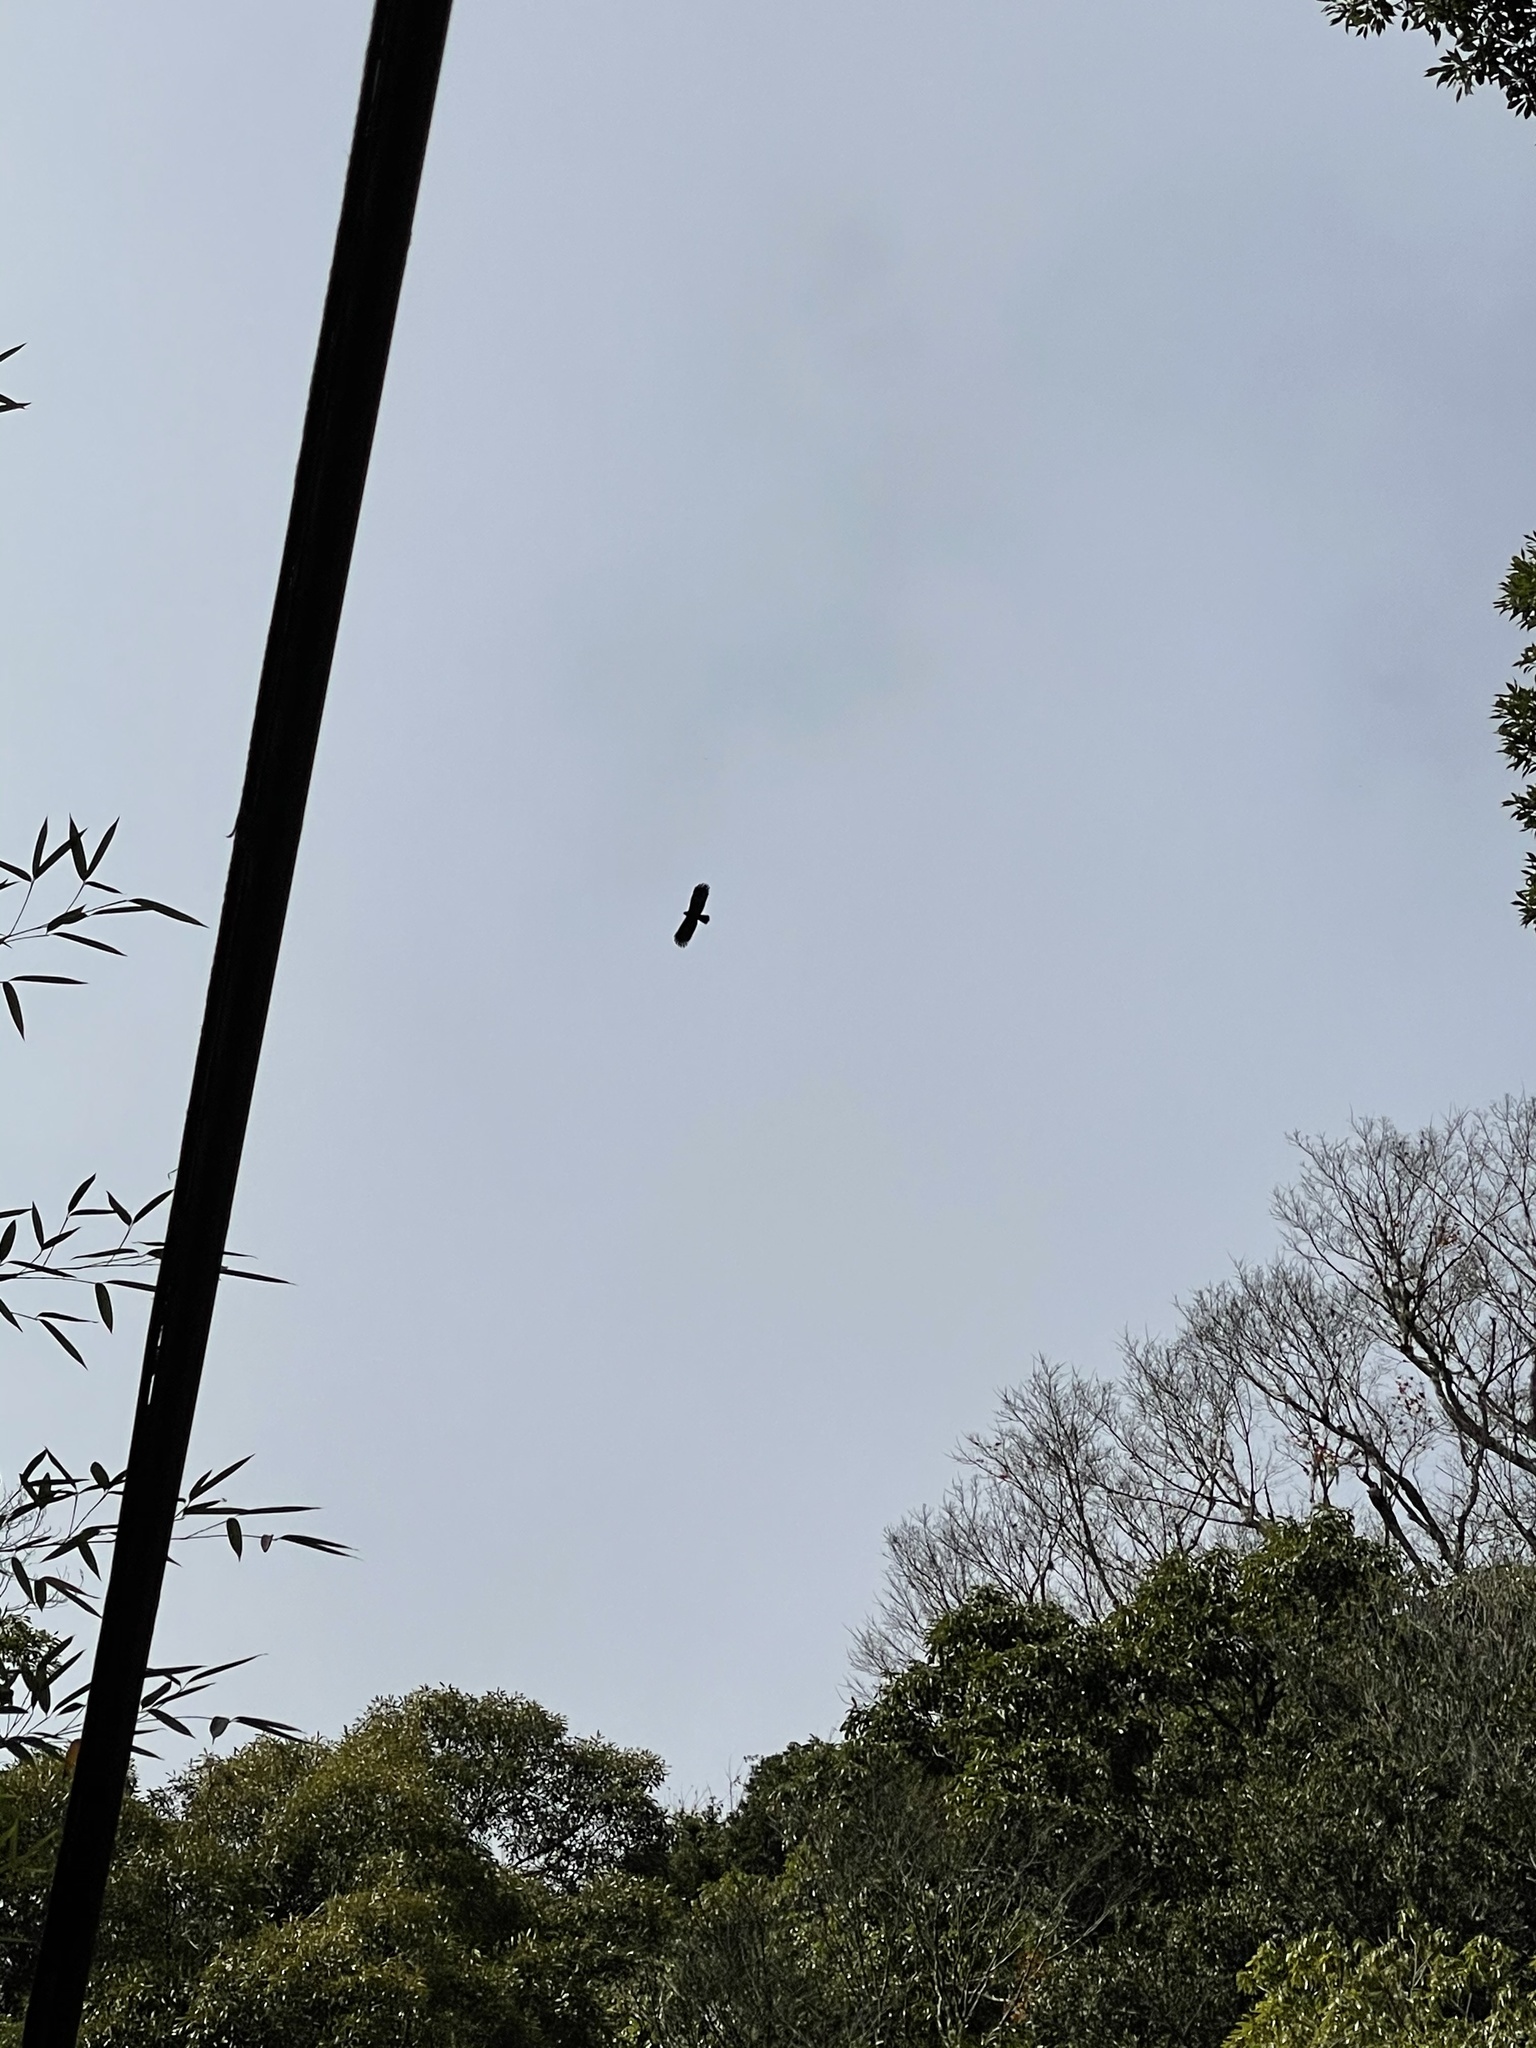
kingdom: Animalia
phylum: Chordata
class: Aves
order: Accipitriformes
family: Accipitridae
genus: Ictinaetus
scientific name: Ictinaetus malayensis
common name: Black eagle
